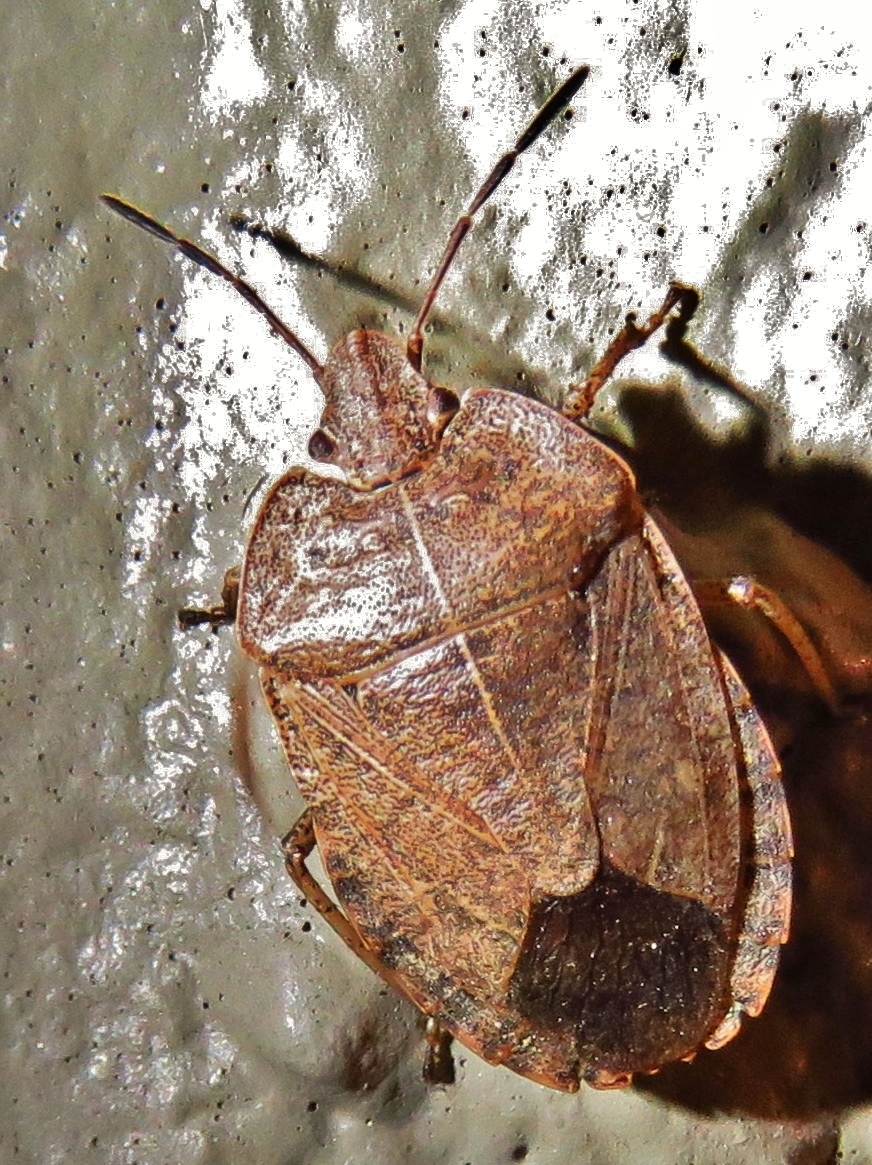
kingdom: Animalia
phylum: Arthropoda
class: Insecta
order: Hemiptera
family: Pentatomidae
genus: Menecles
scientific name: Menecles insertus
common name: Elf shoe stink bug
